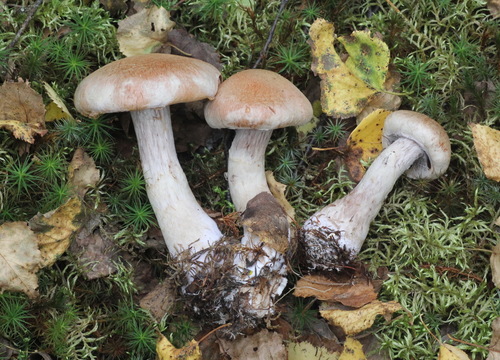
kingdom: Fungi
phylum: Basidiomycota
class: Agaricomycetes
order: Agaricales
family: Cortinariaceae
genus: Cortinarius
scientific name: Cortinarius rusticus
